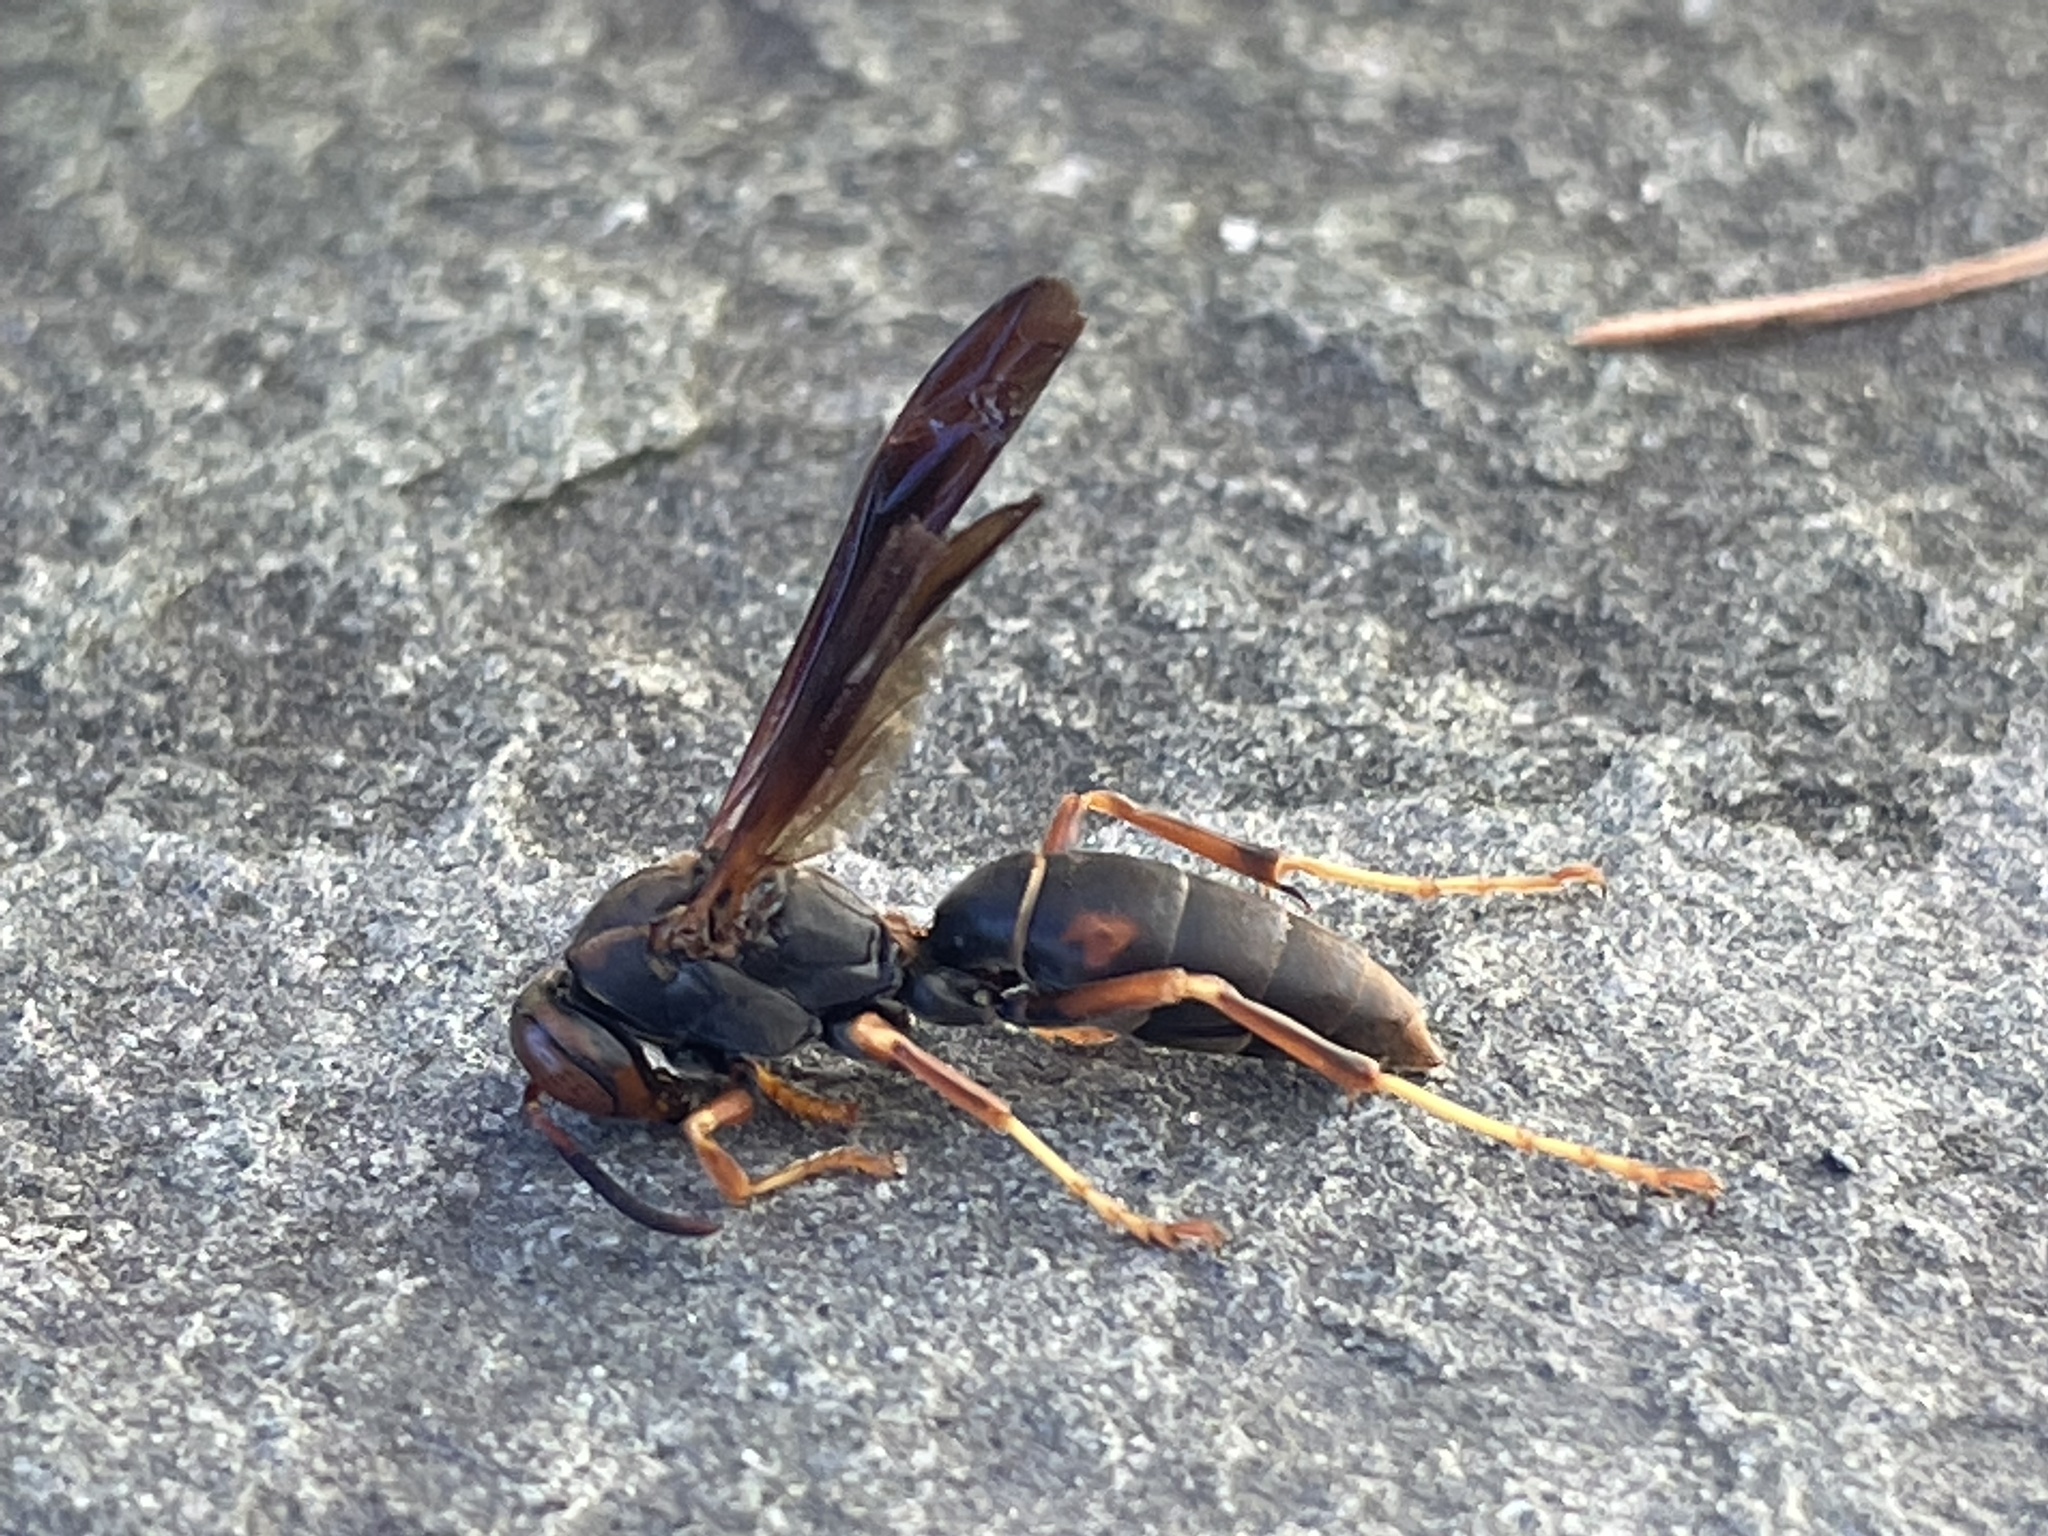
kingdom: Animalia
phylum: Arthropoda
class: Insecta
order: Hymenoptera
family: Eumenidae
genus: Polistes
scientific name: Polistes fuscatus
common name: Dark paper wasp
